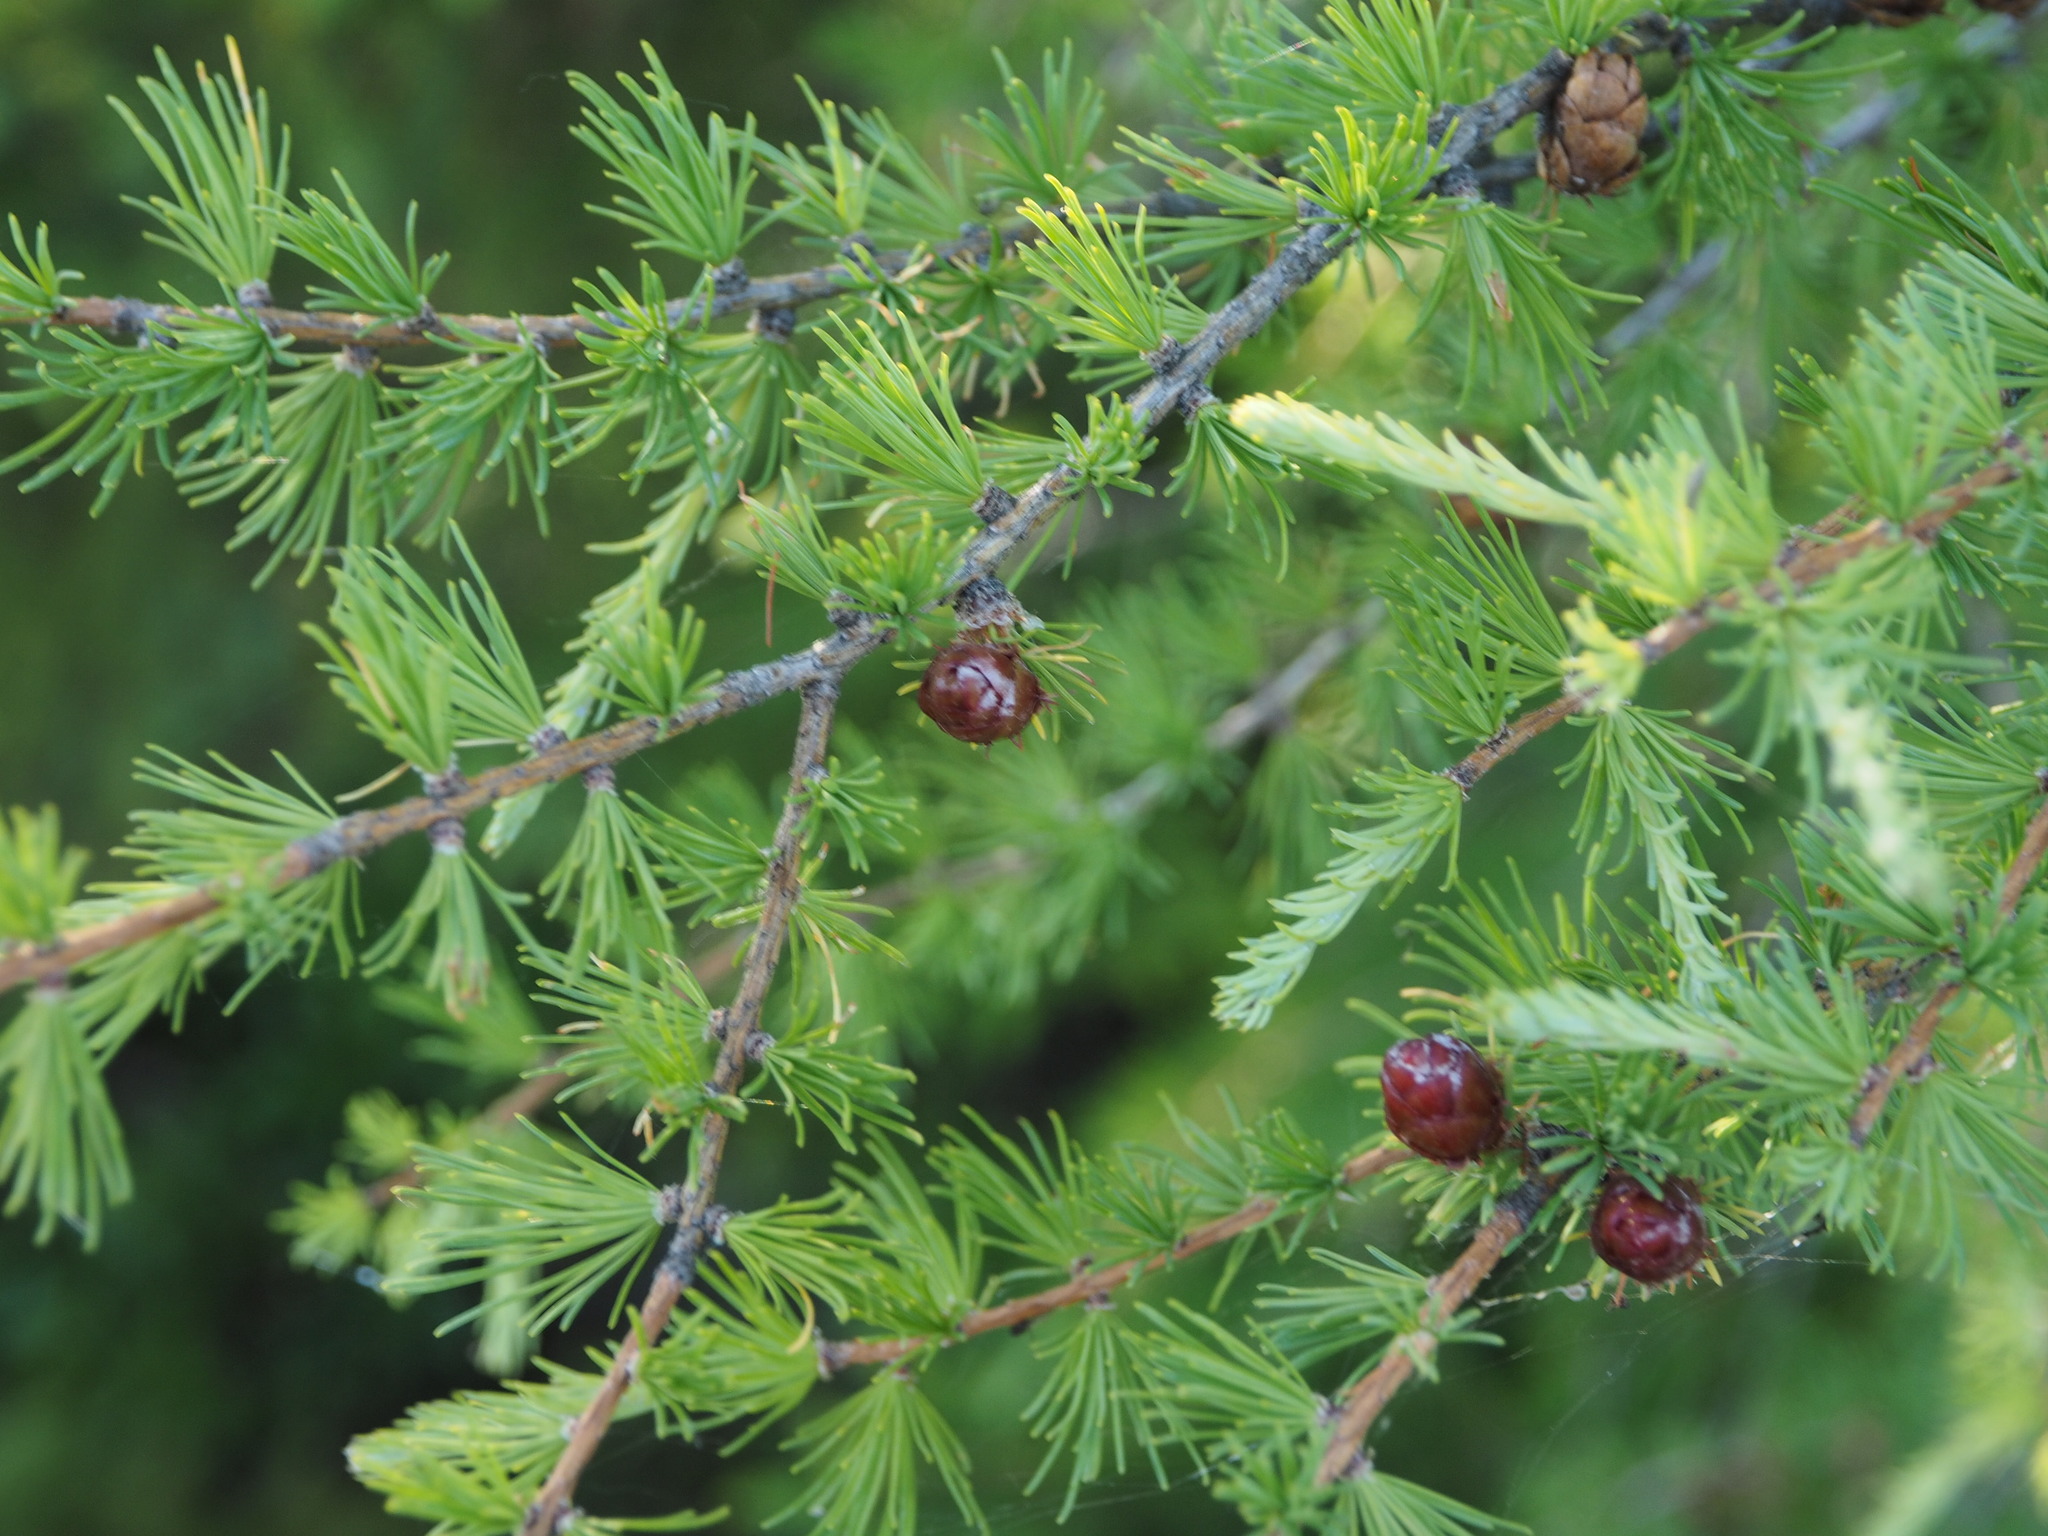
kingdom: Plantae
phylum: Tracheophyta
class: Pinopsida
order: Pinales
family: Pinaceae
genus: Larix
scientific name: Larix laricina
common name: American larch
